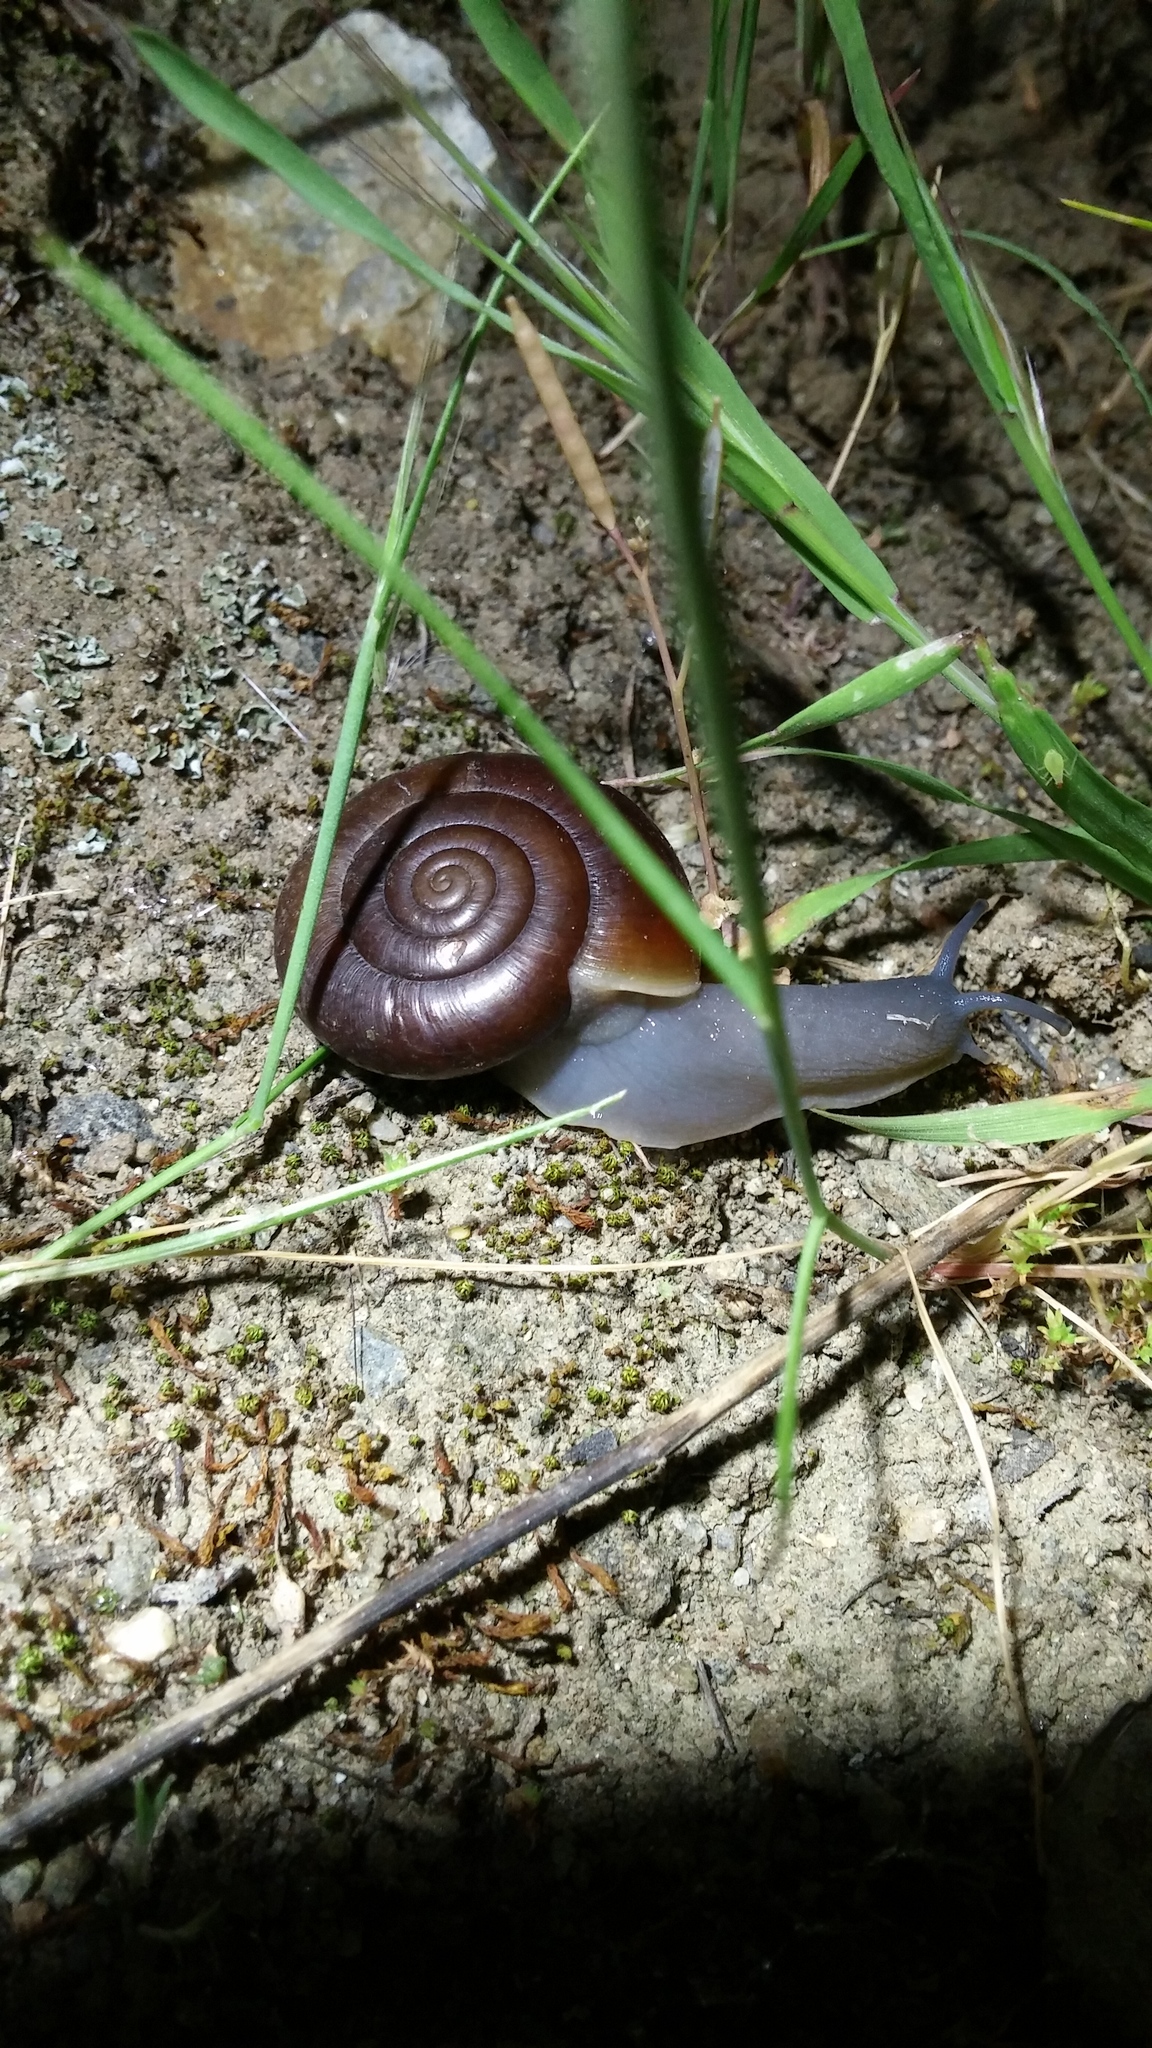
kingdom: Animalia
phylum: Mollusca
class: Gastropoda
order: Stylommatophora
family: Megomphicidae
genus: Glyptostoma
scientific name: Glyptostoma newberryanum
